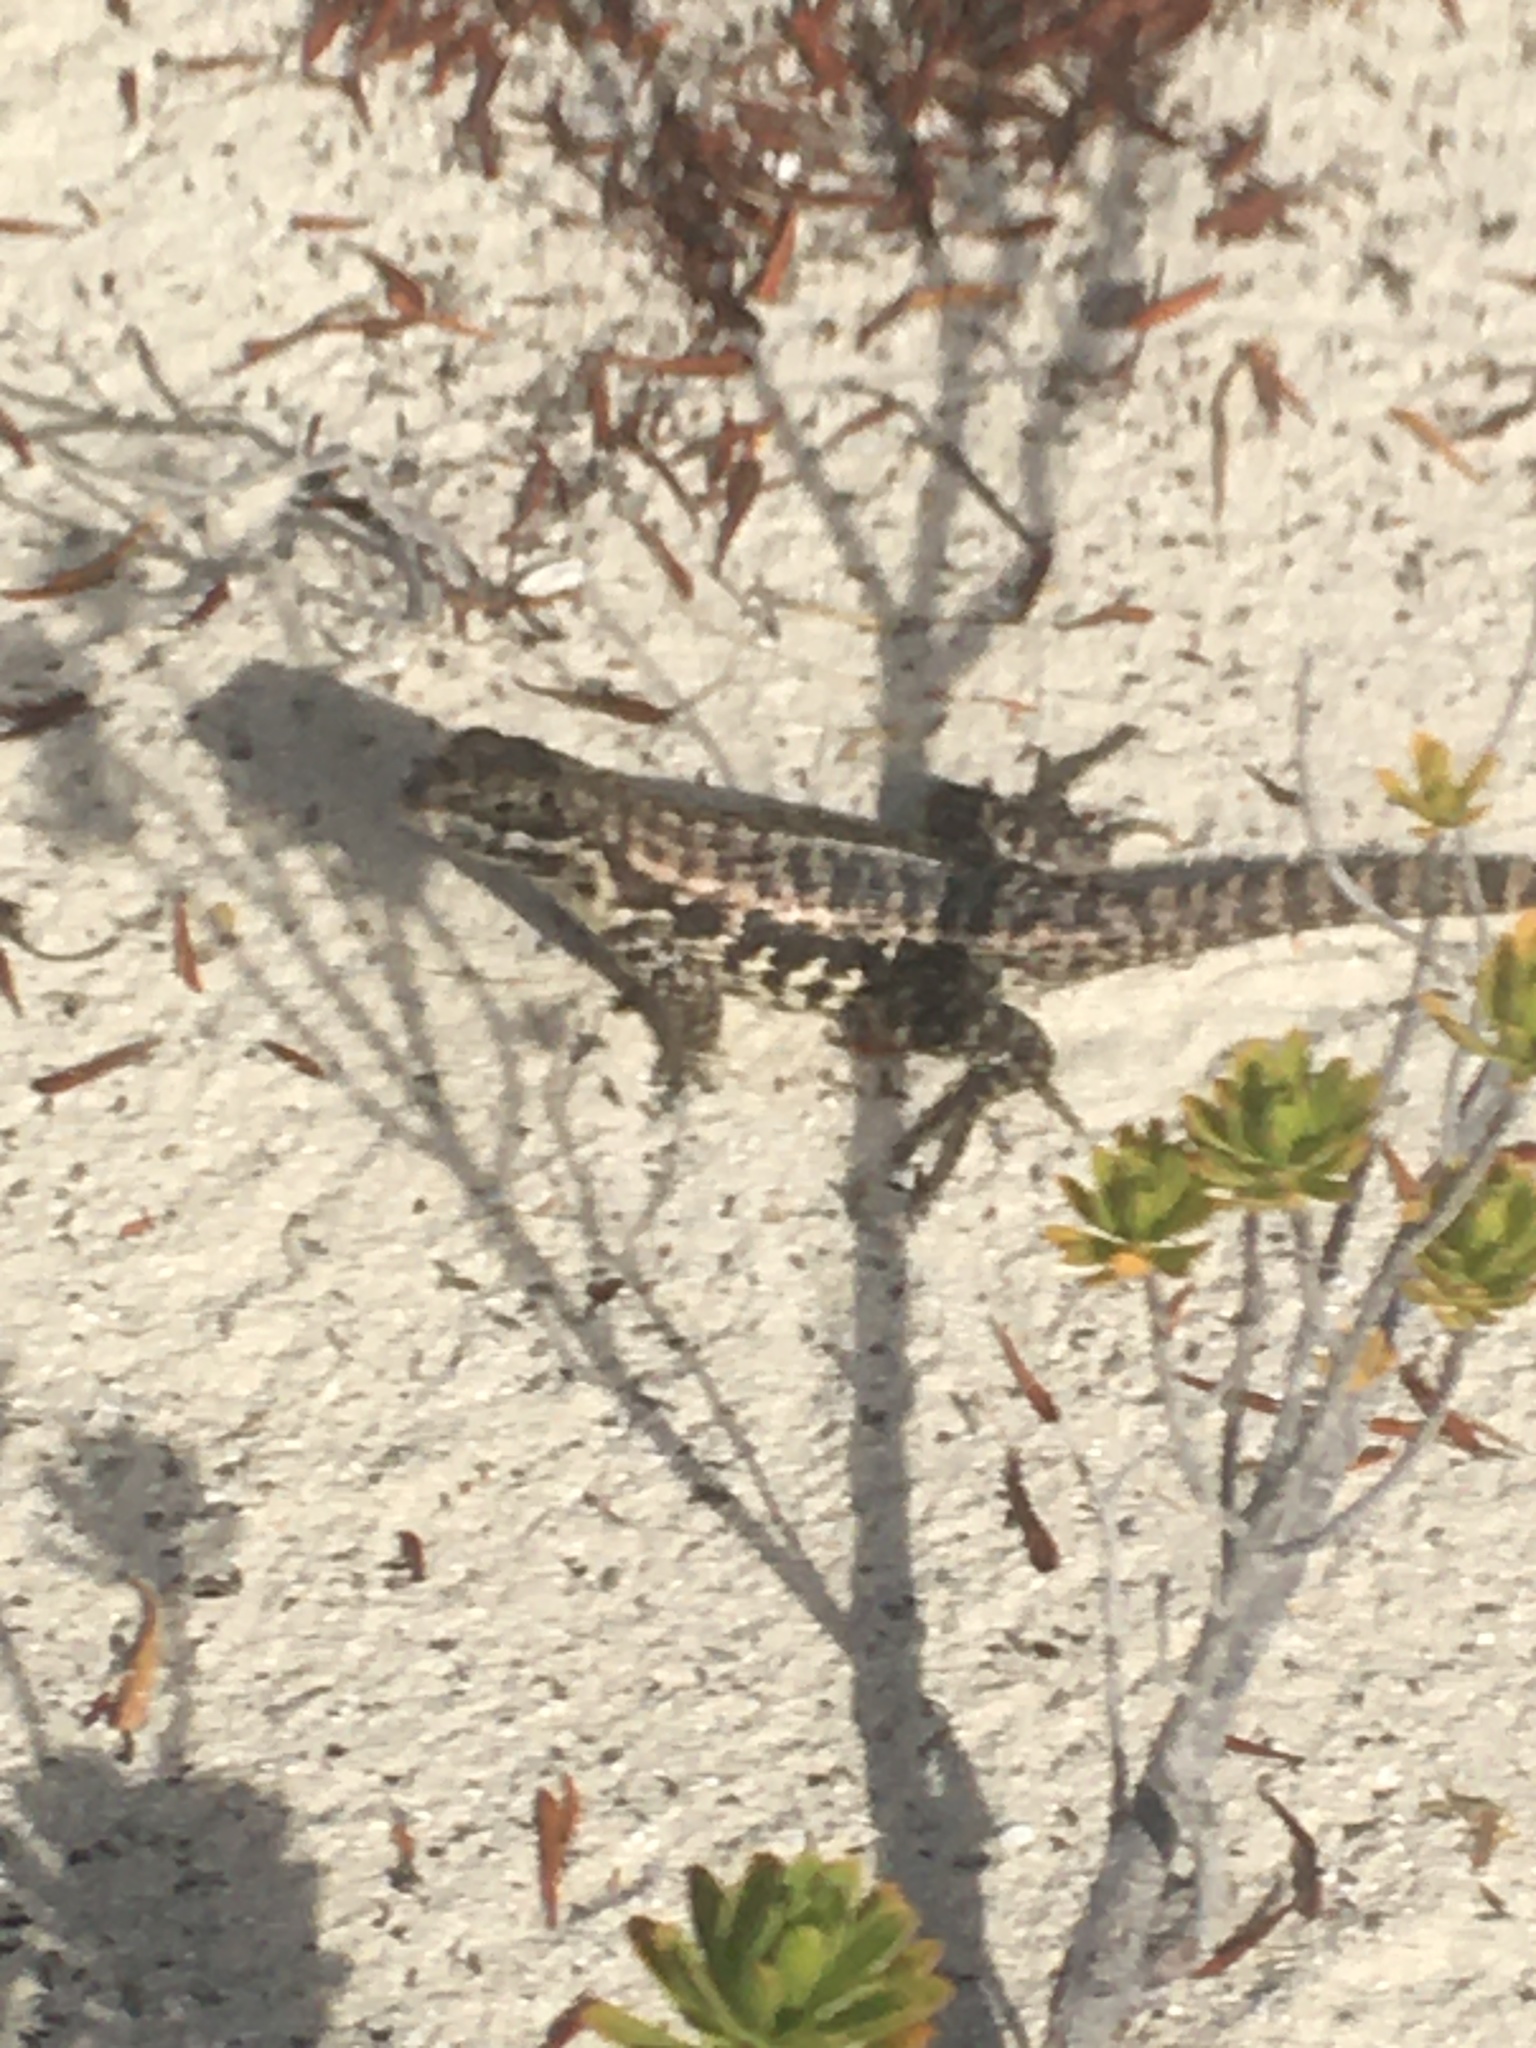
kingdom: Animalia
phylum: Chordata
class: Squamata
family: Leiocephalidae
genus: Leiocephalus
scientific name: Leiocephalus carinatus
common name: Northern curly-tailed lizard
